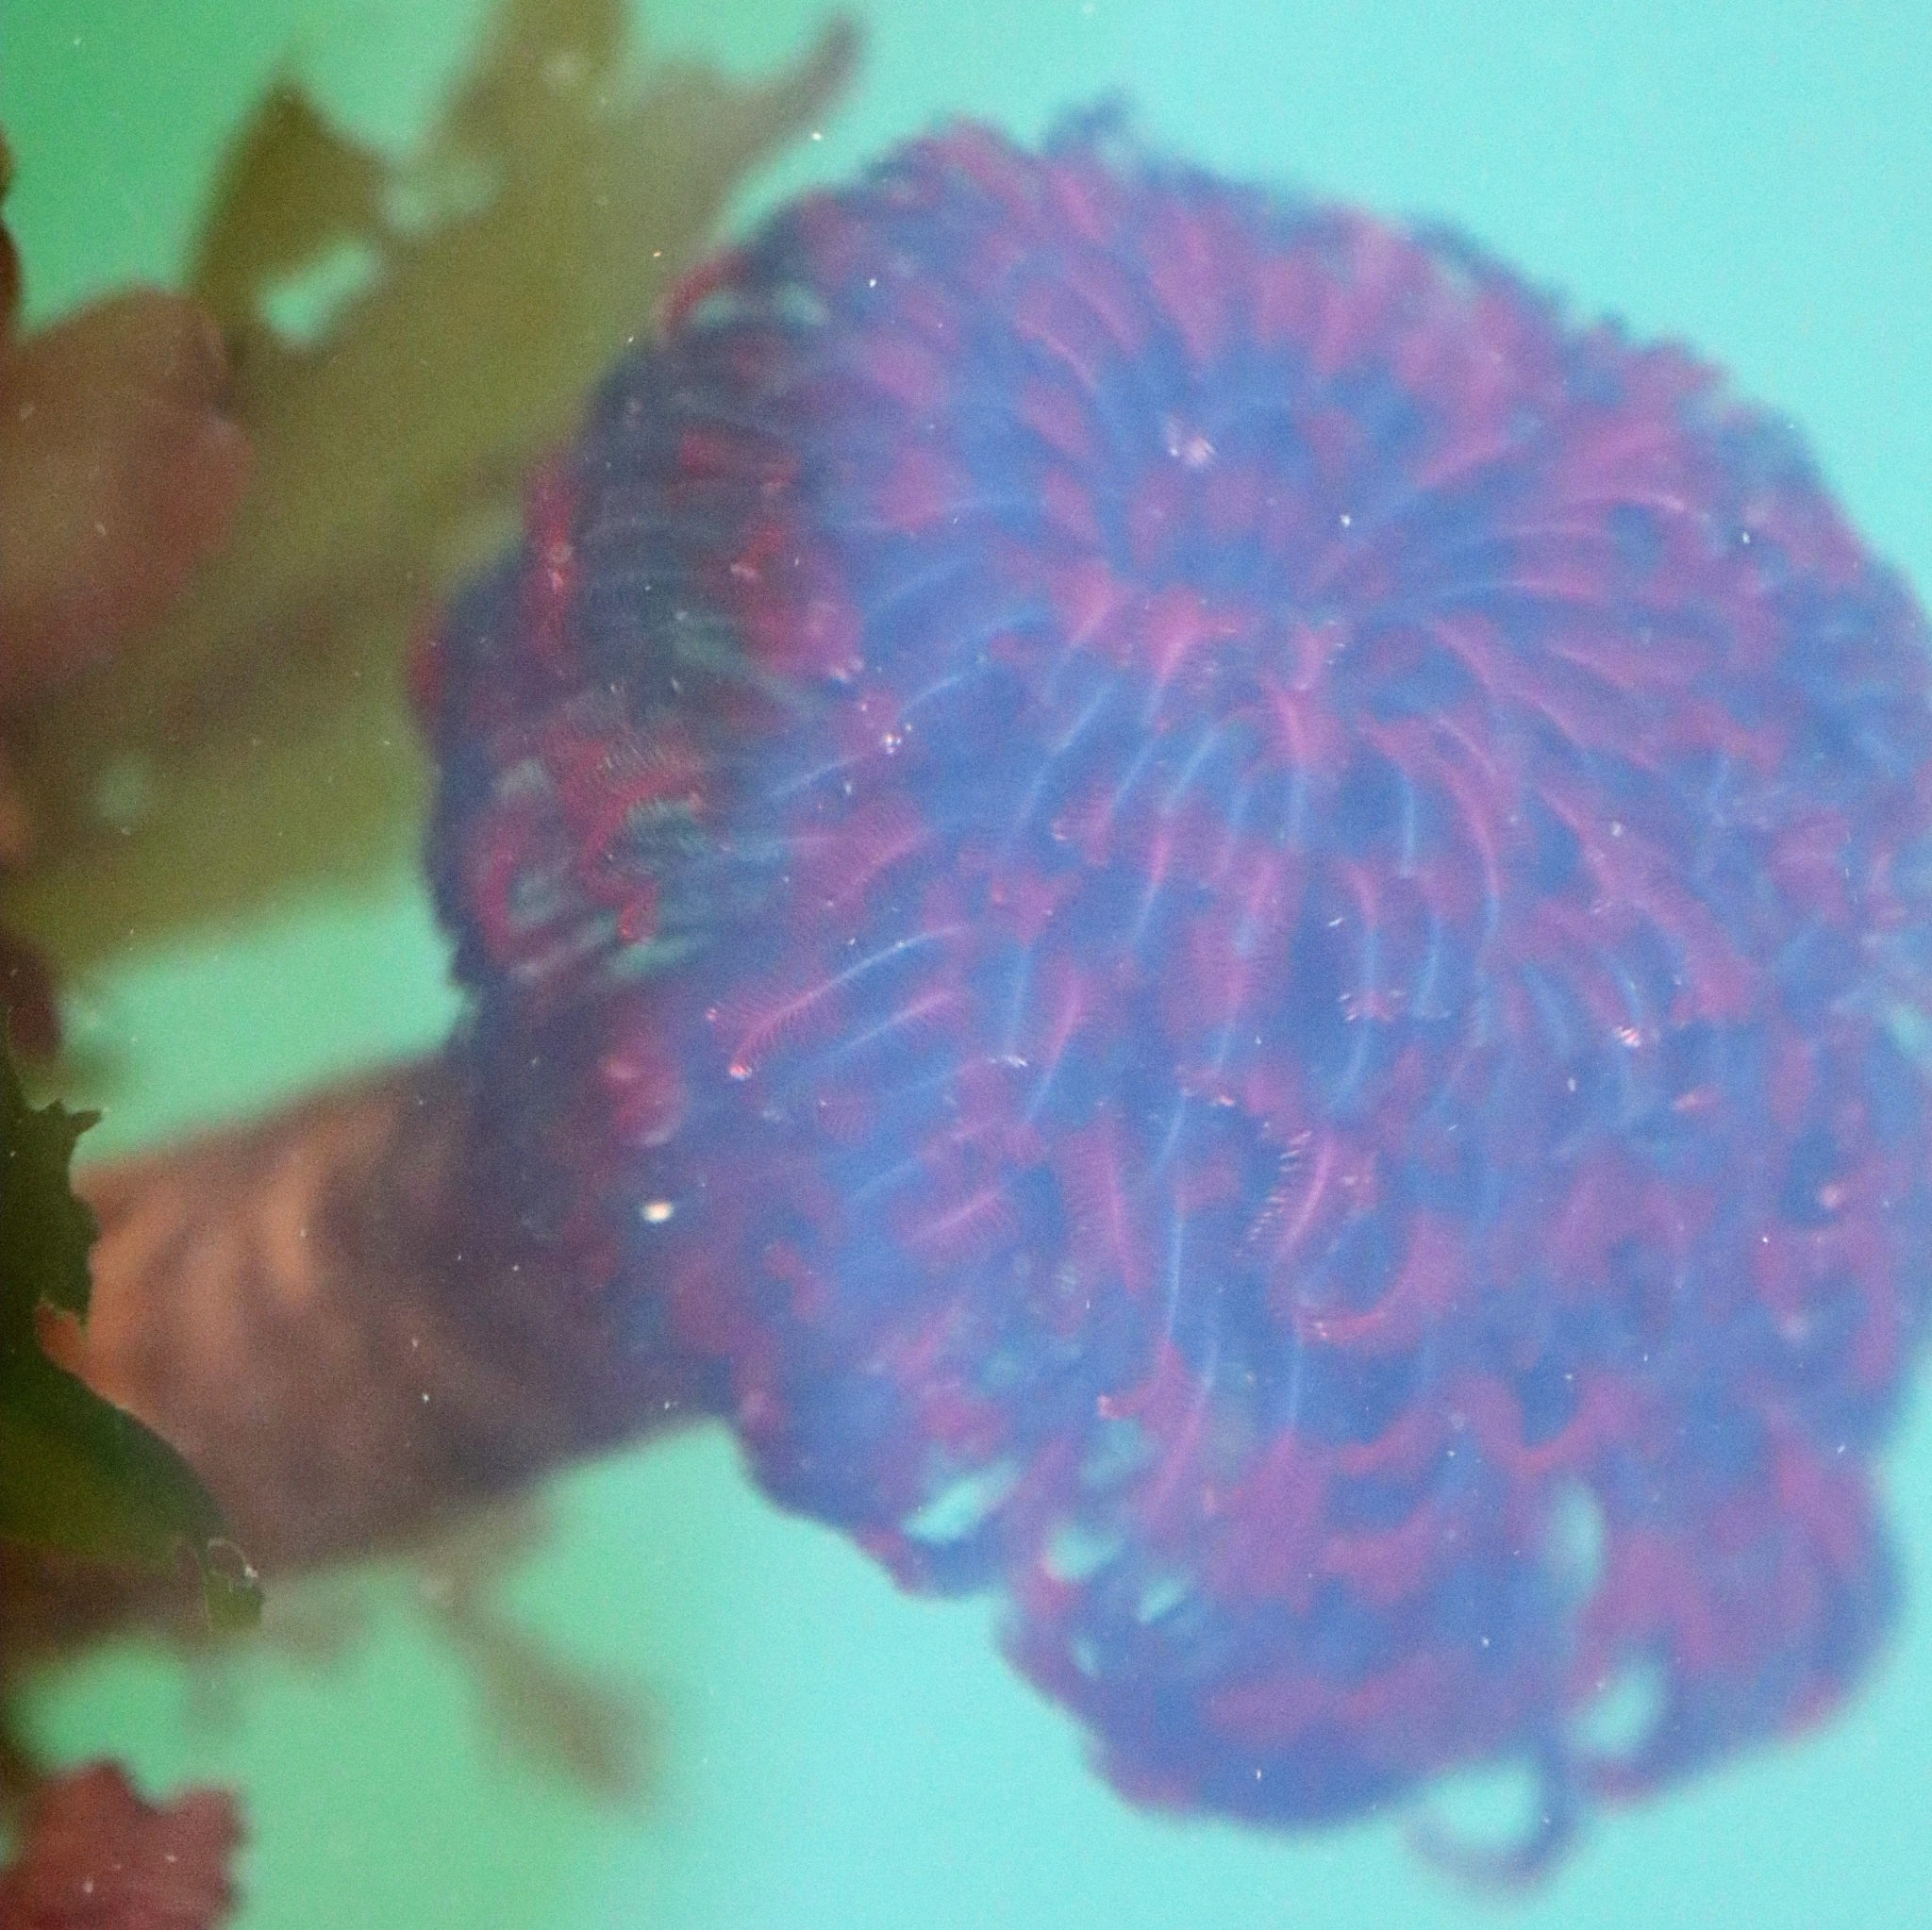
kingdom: Animalia
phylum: Annelida
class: Polychaeta
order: Sabellida
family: Sabellidae
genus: Eudistylia
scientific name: Eudistylia vancouveri
